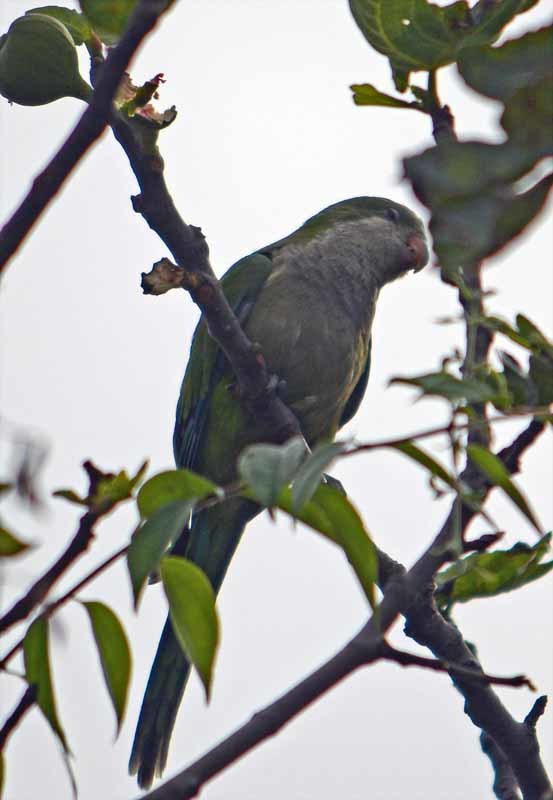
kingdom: Animalia
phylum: Chordata
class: Aves
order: Psittaciformes
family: Psittacidae
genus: Myiopsitta
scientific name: Myiopsitta monachus
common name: Monk parakeet
